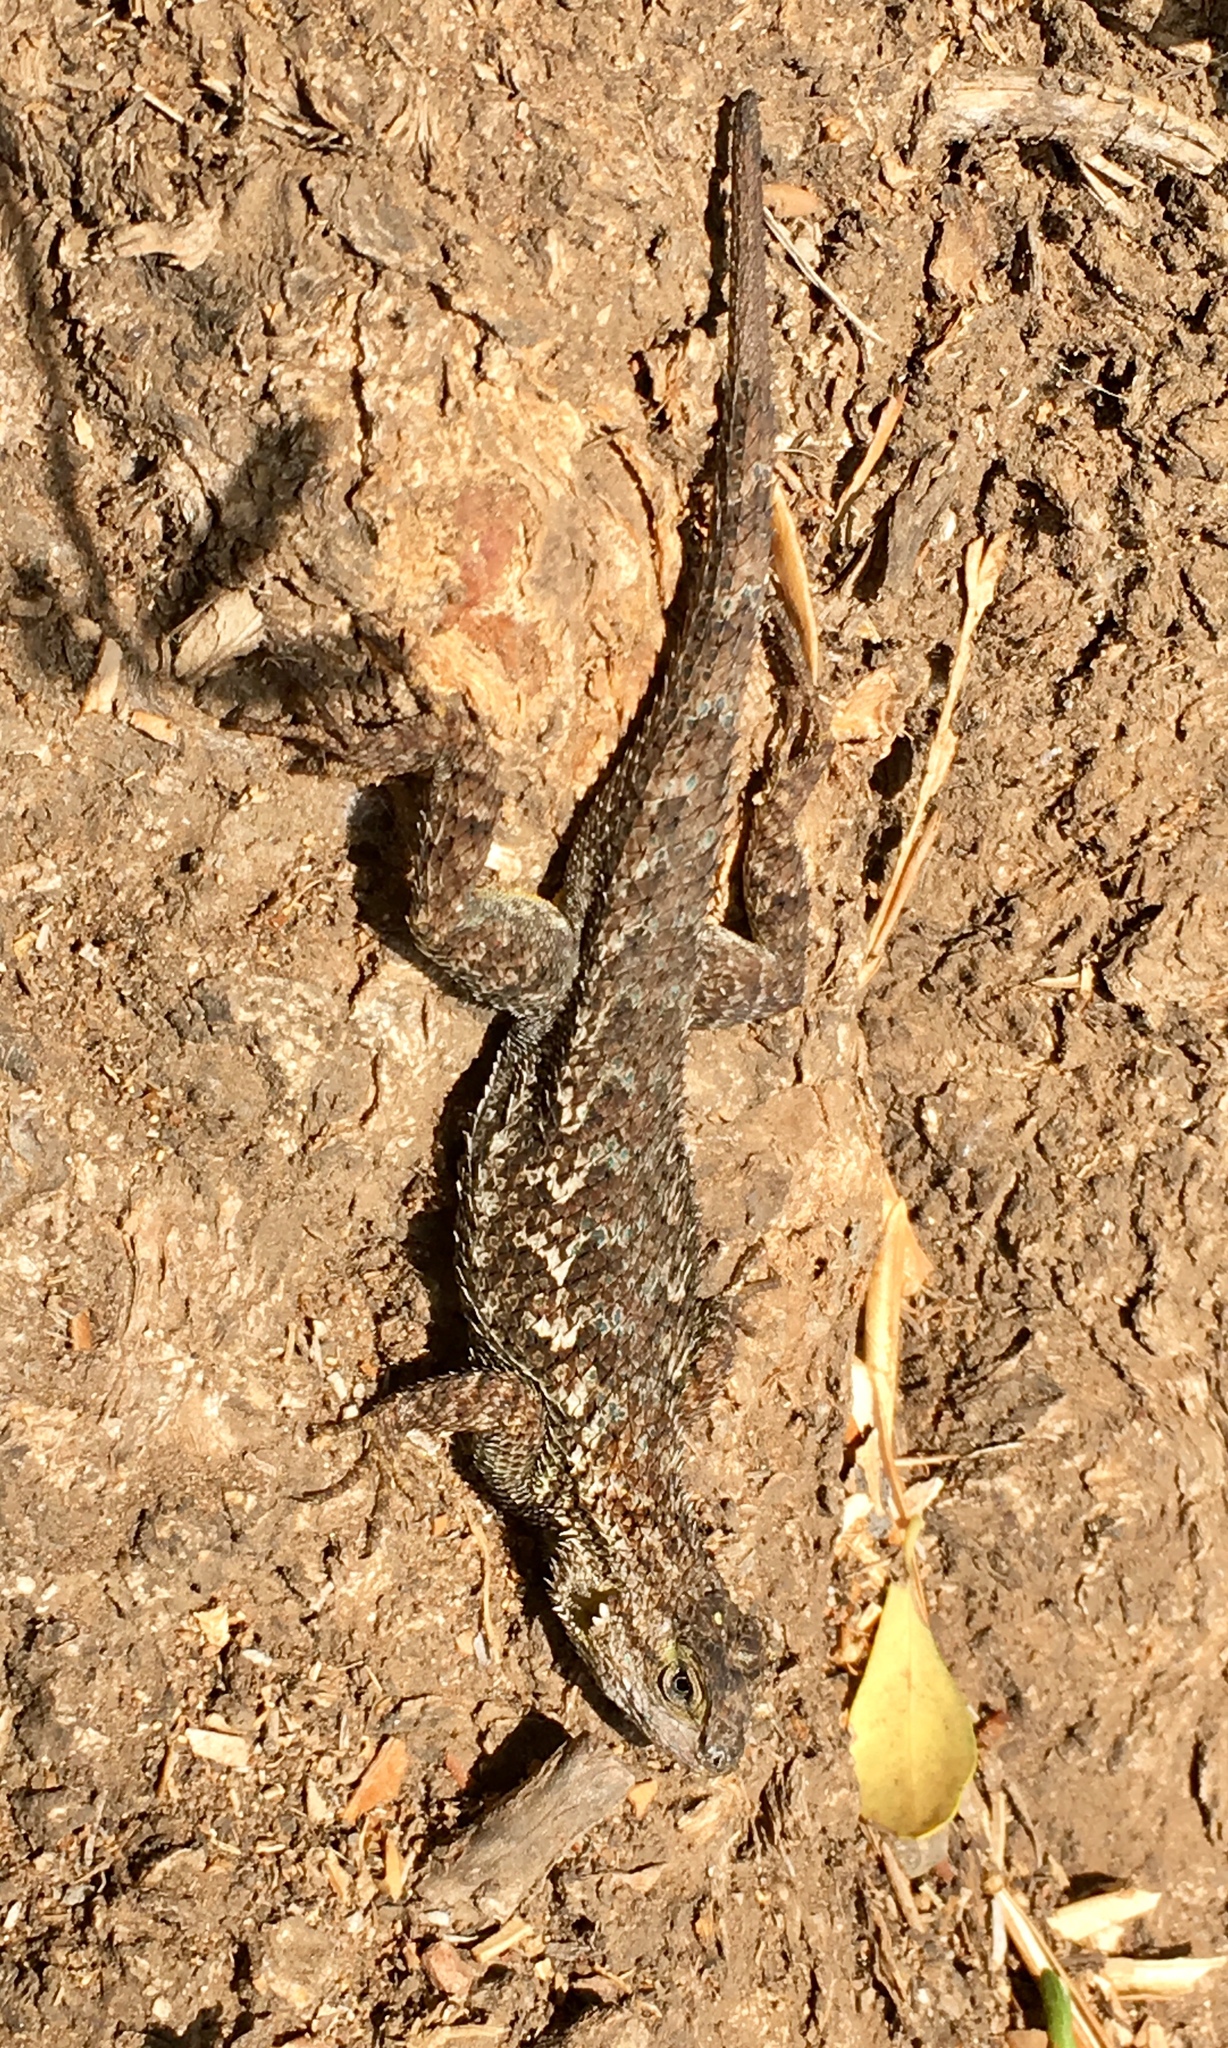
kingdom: Animalia
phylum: Chordata
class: Squamata
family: Phrynosomatidae
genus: Sceloporus
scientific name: Sceloporus occidentalis
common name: Western fence lizard
